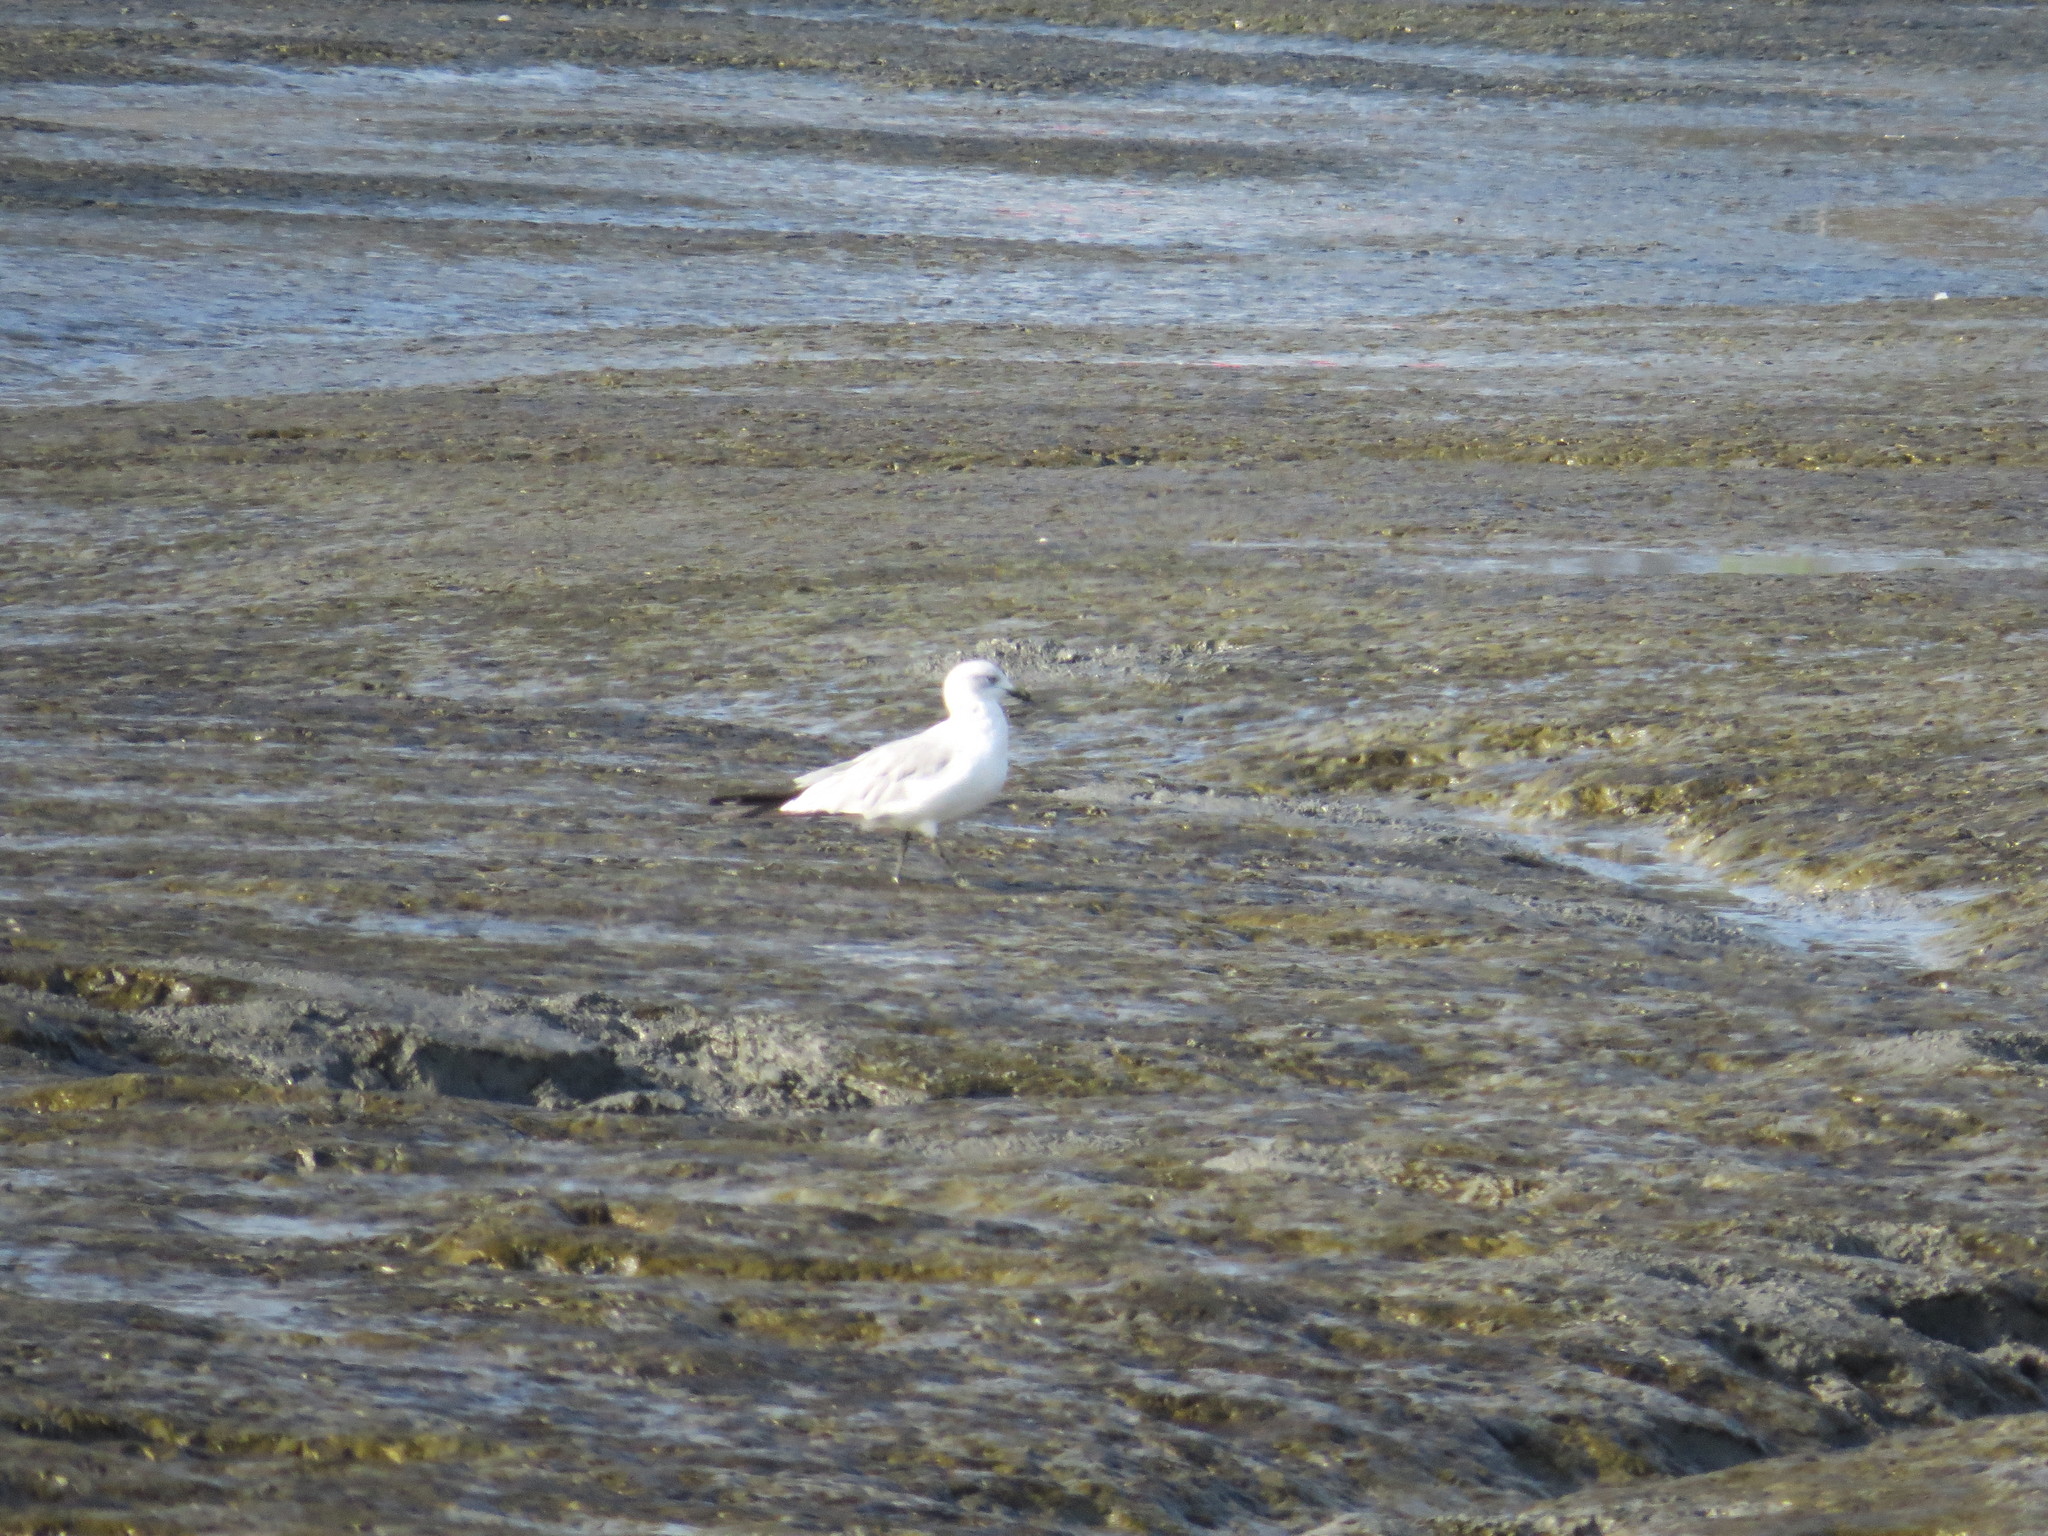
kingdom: Animalia
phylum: Chordata
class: Aves
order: Charadriiformes
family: Laridae
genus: Larus
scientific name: Larus delawarensis
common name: Ring-billed gull
